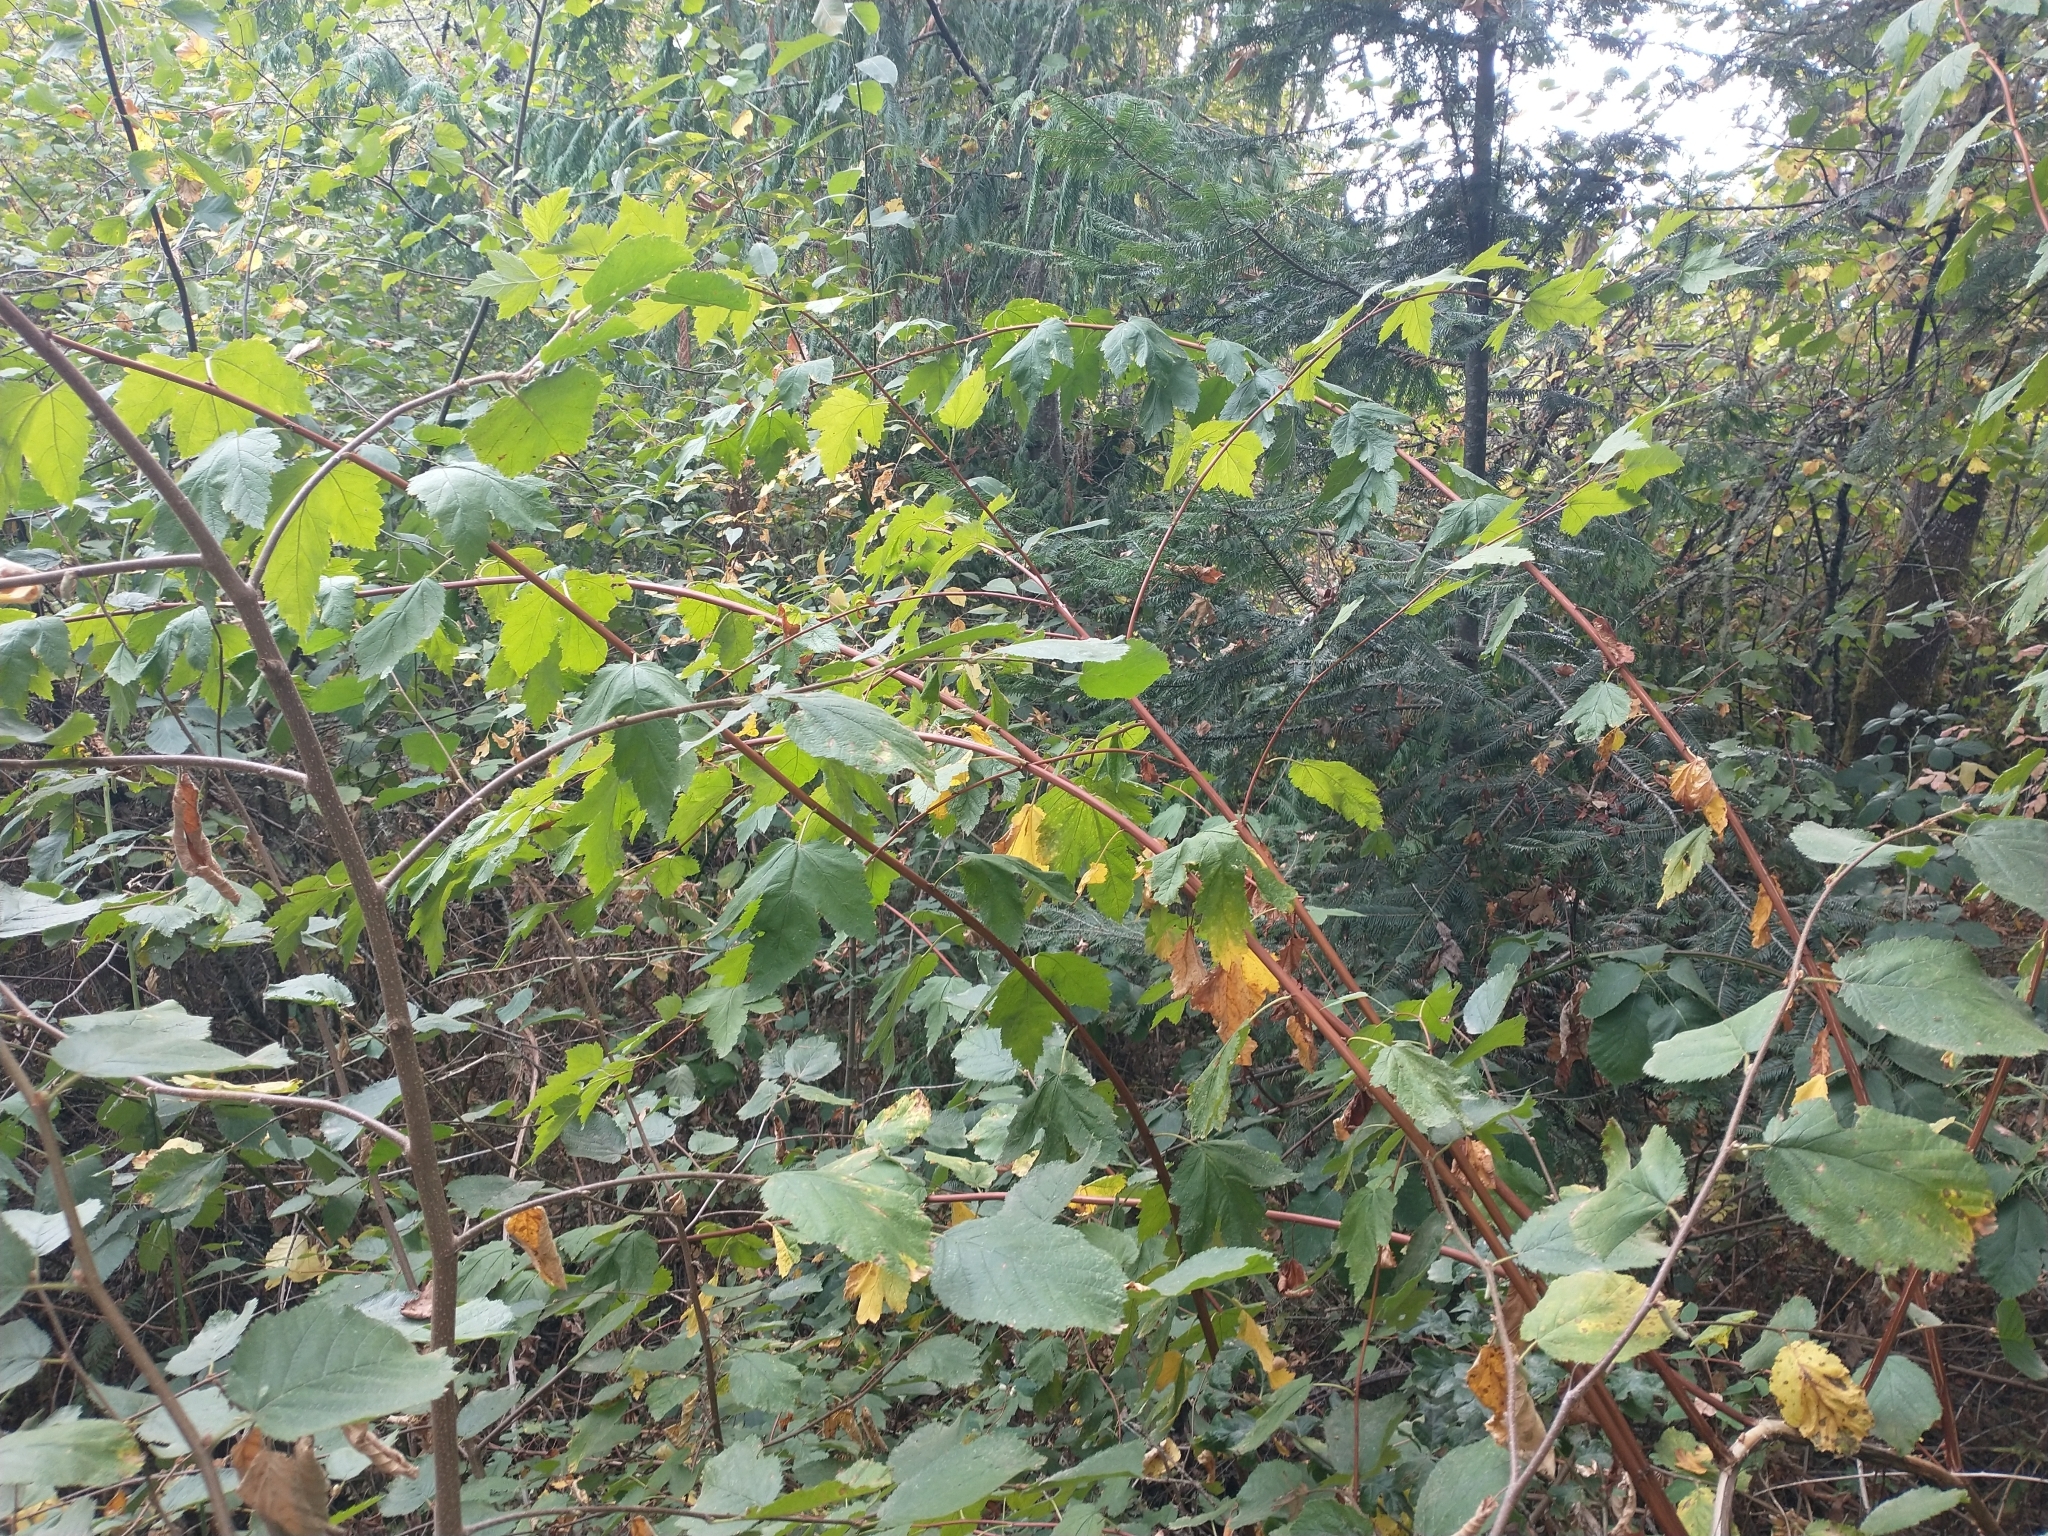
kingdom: Plantae
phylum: Tracheophyta
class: Magnoliopsida
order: Rosales
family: Rosaceae
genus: Physocarpus
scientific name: Physocarpus capitatus
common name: Pacific ninebark
